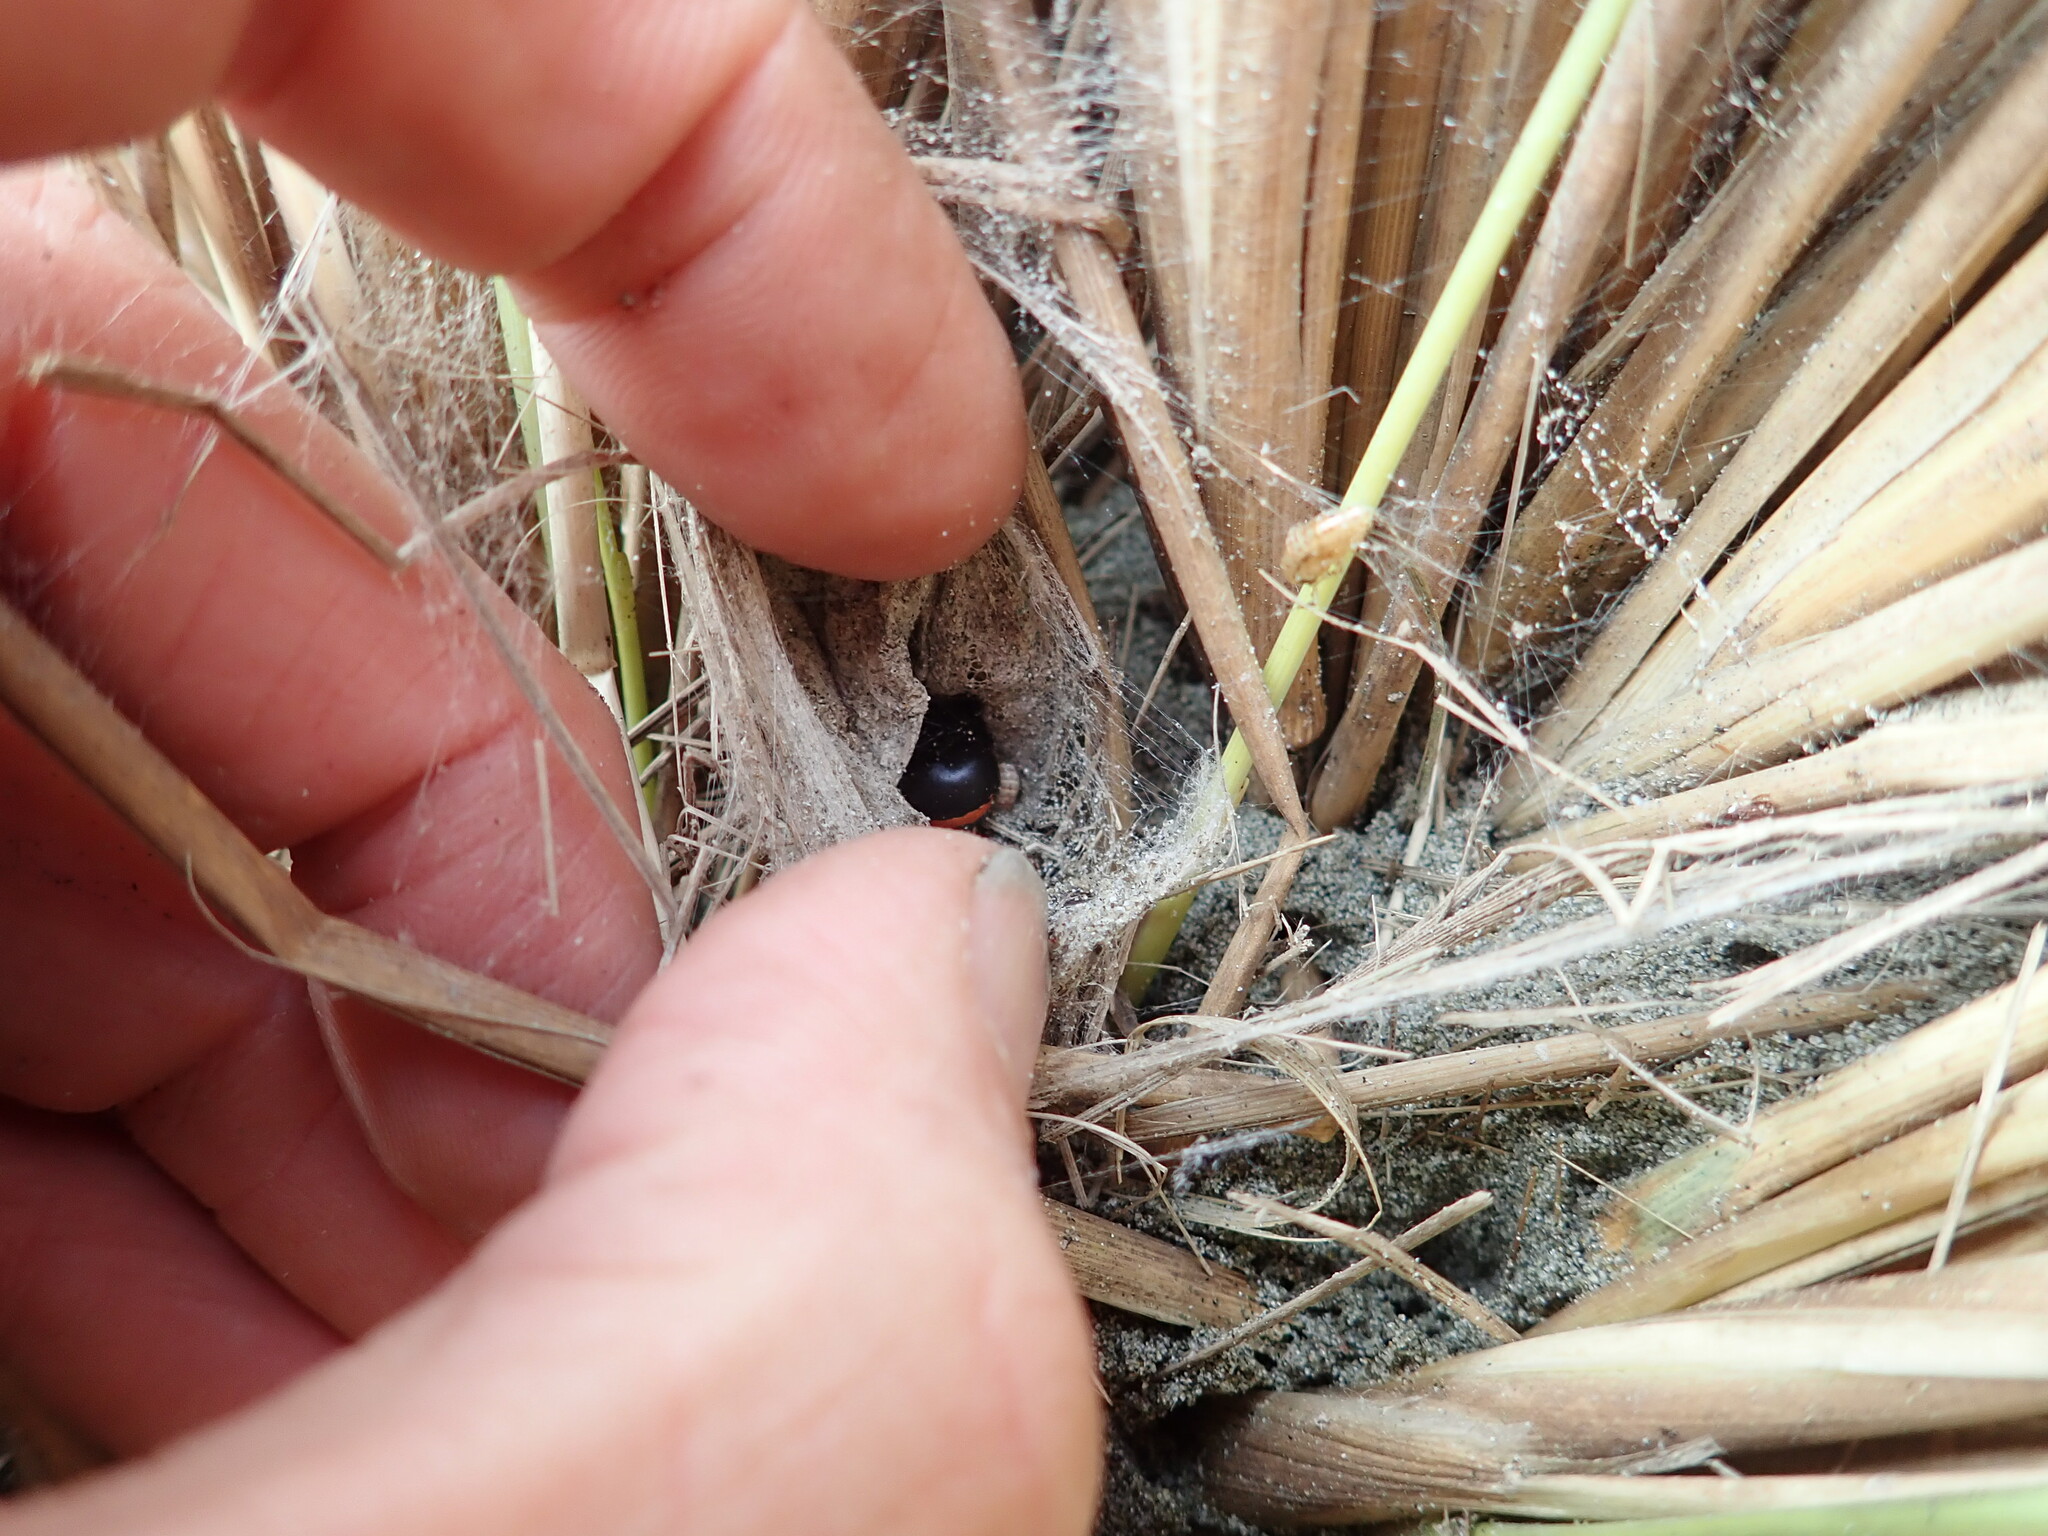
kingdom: Animalia
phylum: Arthropoda
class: Arachnida
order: Araneae
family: Theridiidae
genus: Latrodectus
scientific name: Latrodectus katipo
